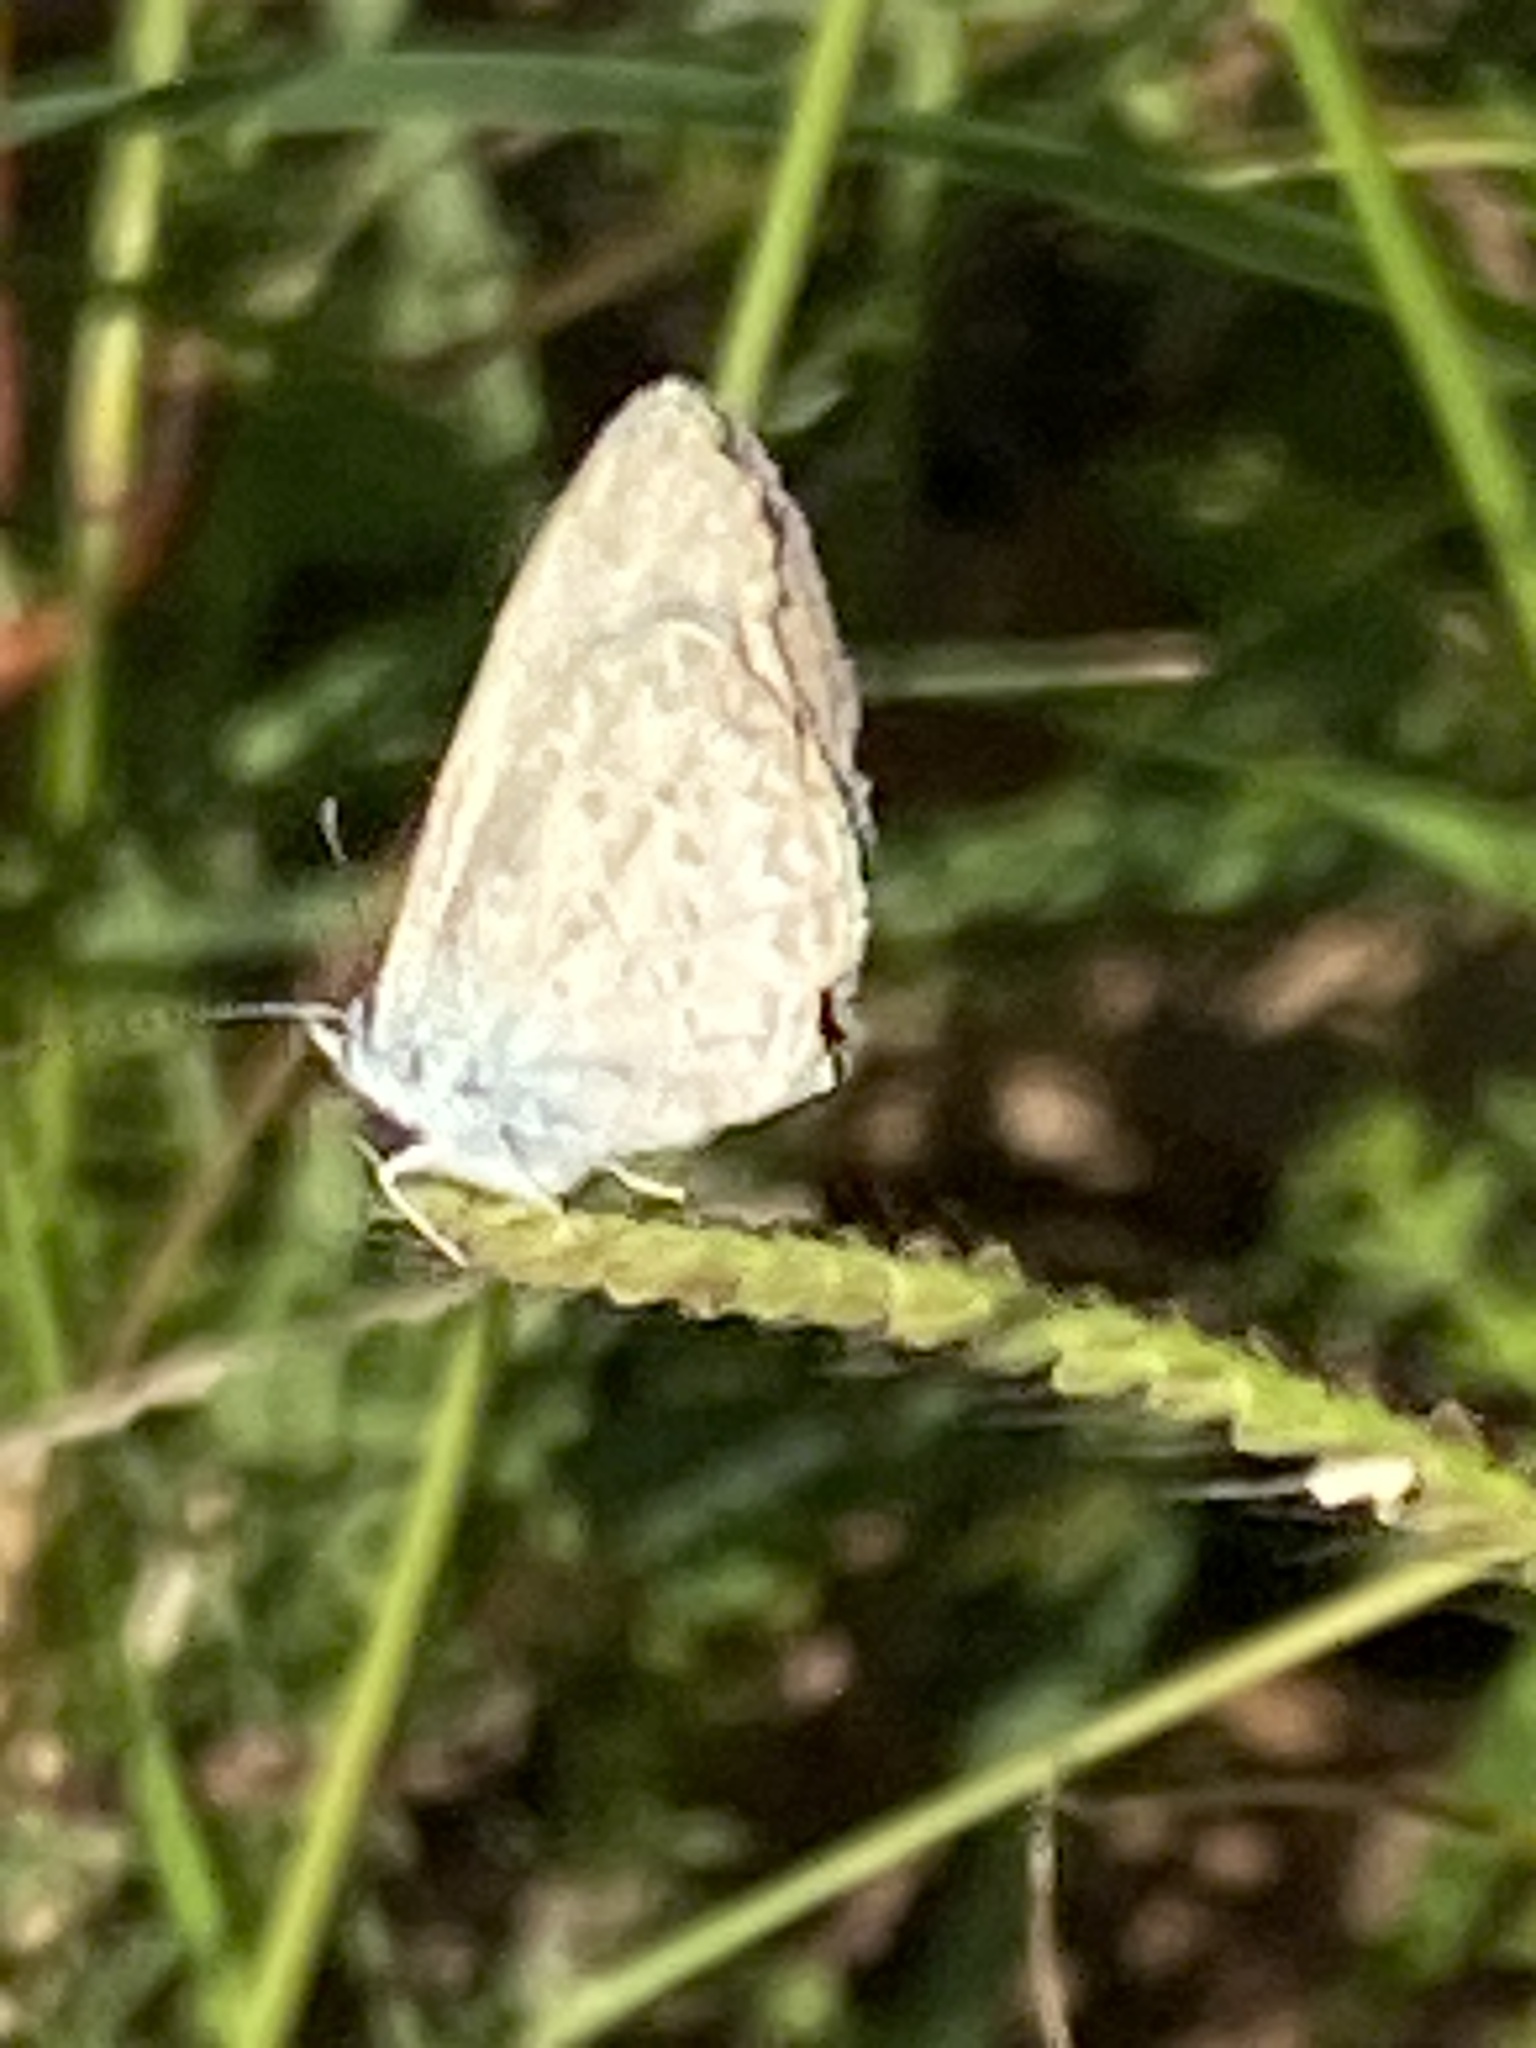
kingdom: Animalia
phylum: Arthropoda
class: Insecta
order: Lepidoptera
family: Lycaenidae
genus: Zizina
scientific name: Zizina otis
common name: Lesser grass blue
